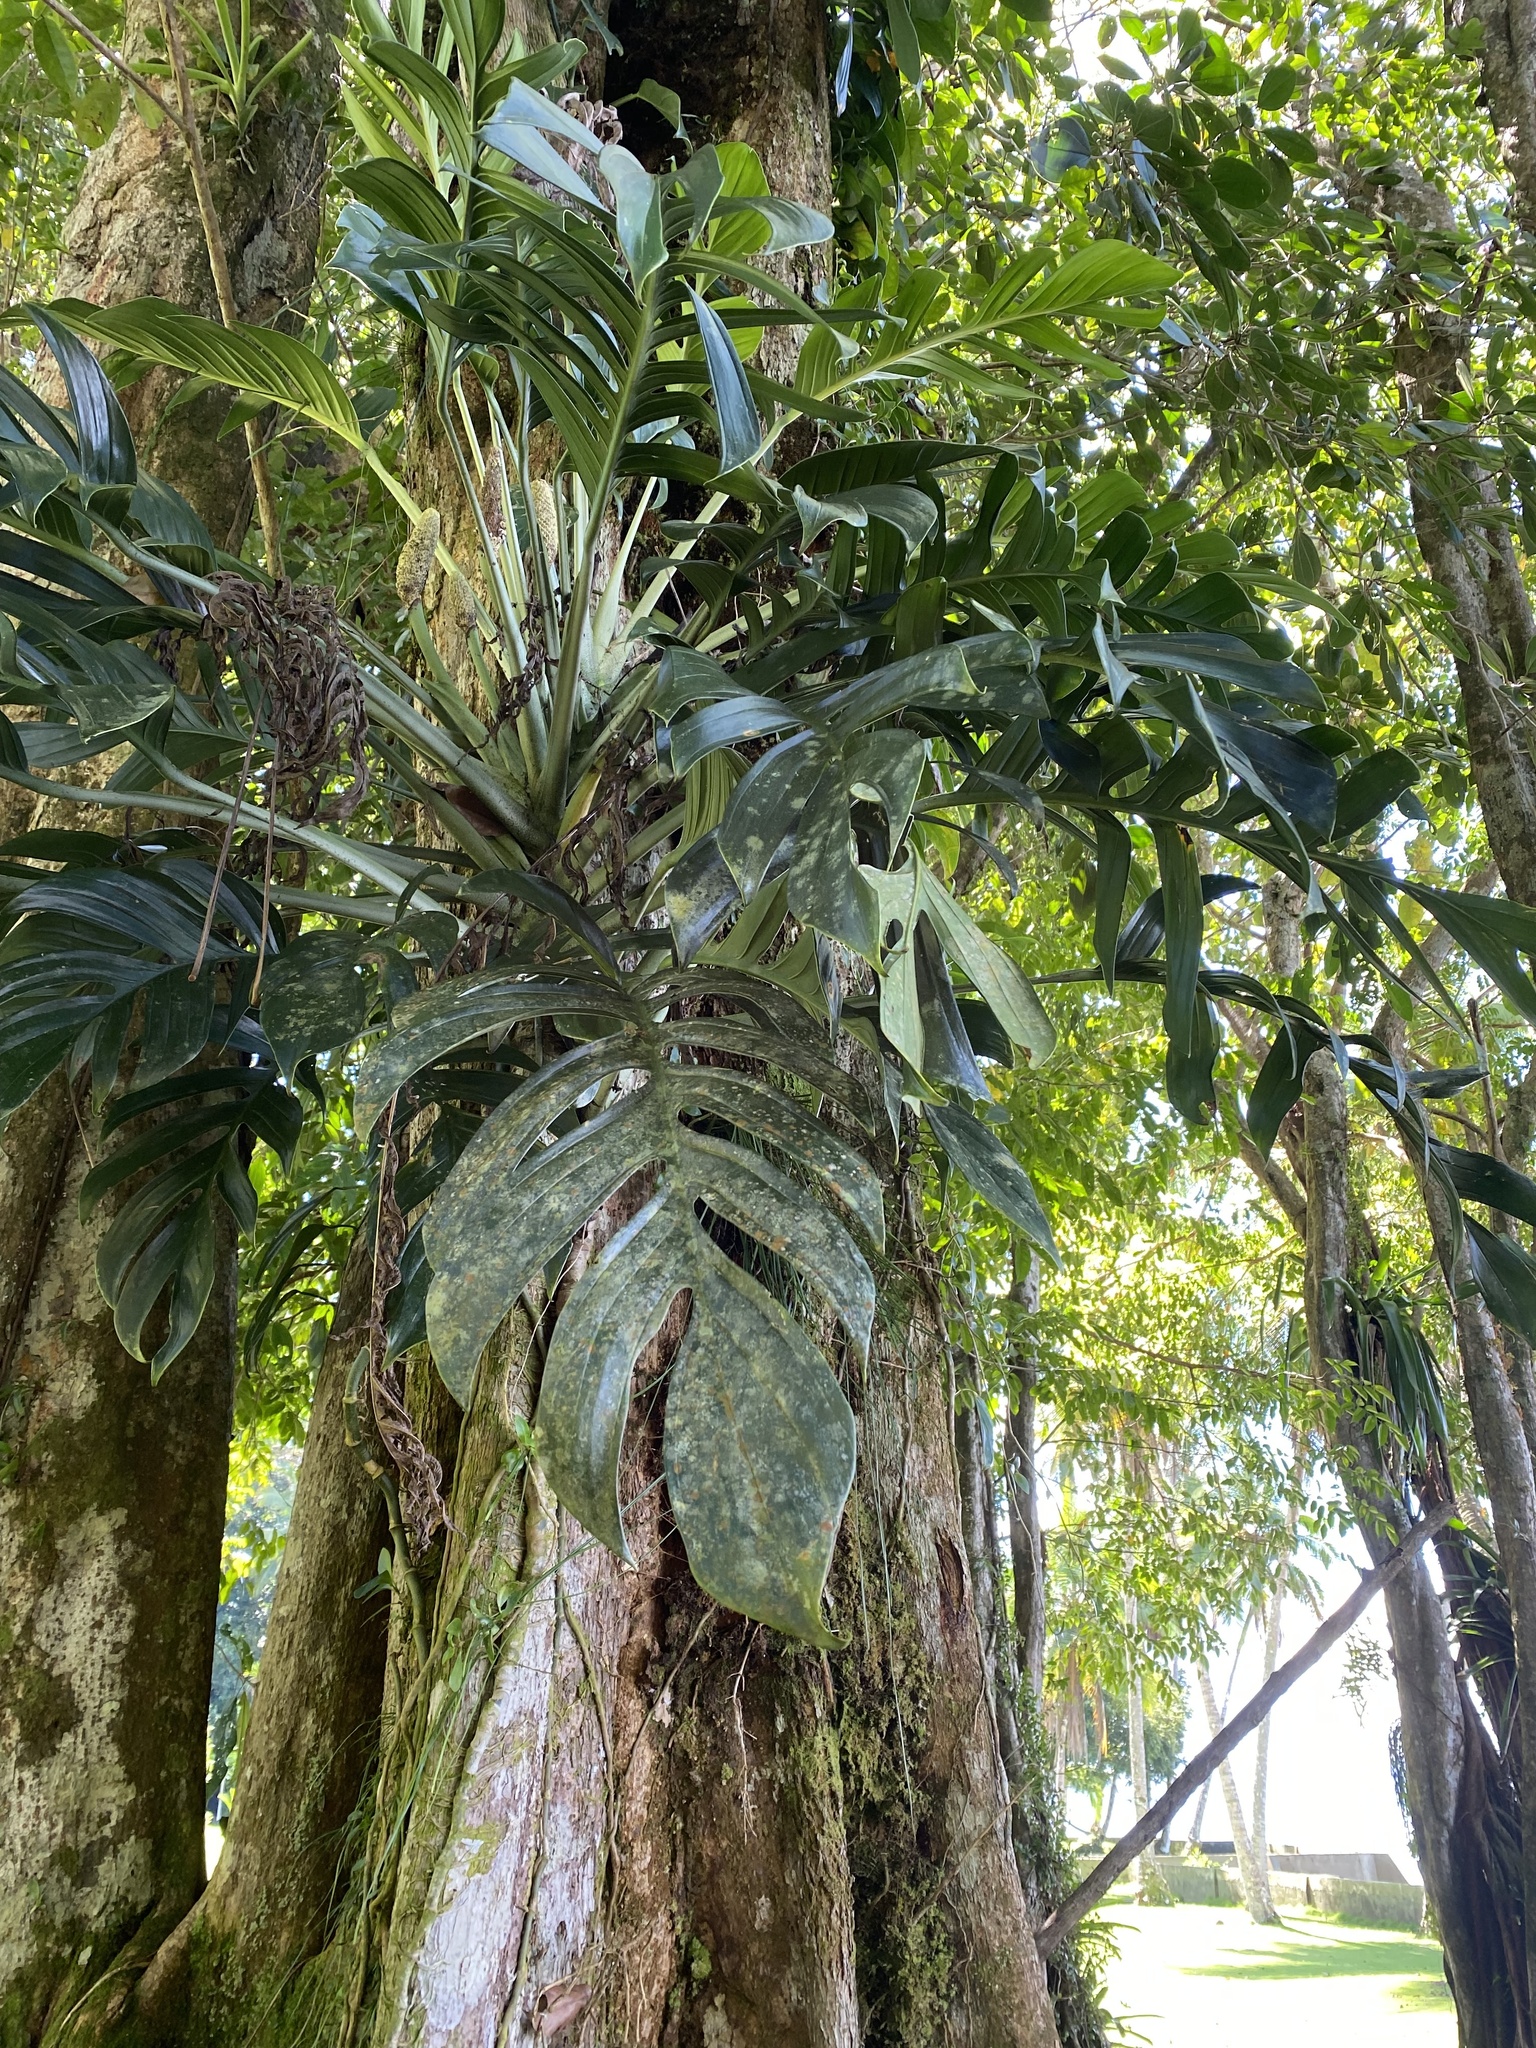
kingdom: Plantae
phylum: Tracheophyta
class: Liliopsida
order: Alismatales
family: Araceae
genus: Monstera
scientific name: Monstera pinnatipartita
